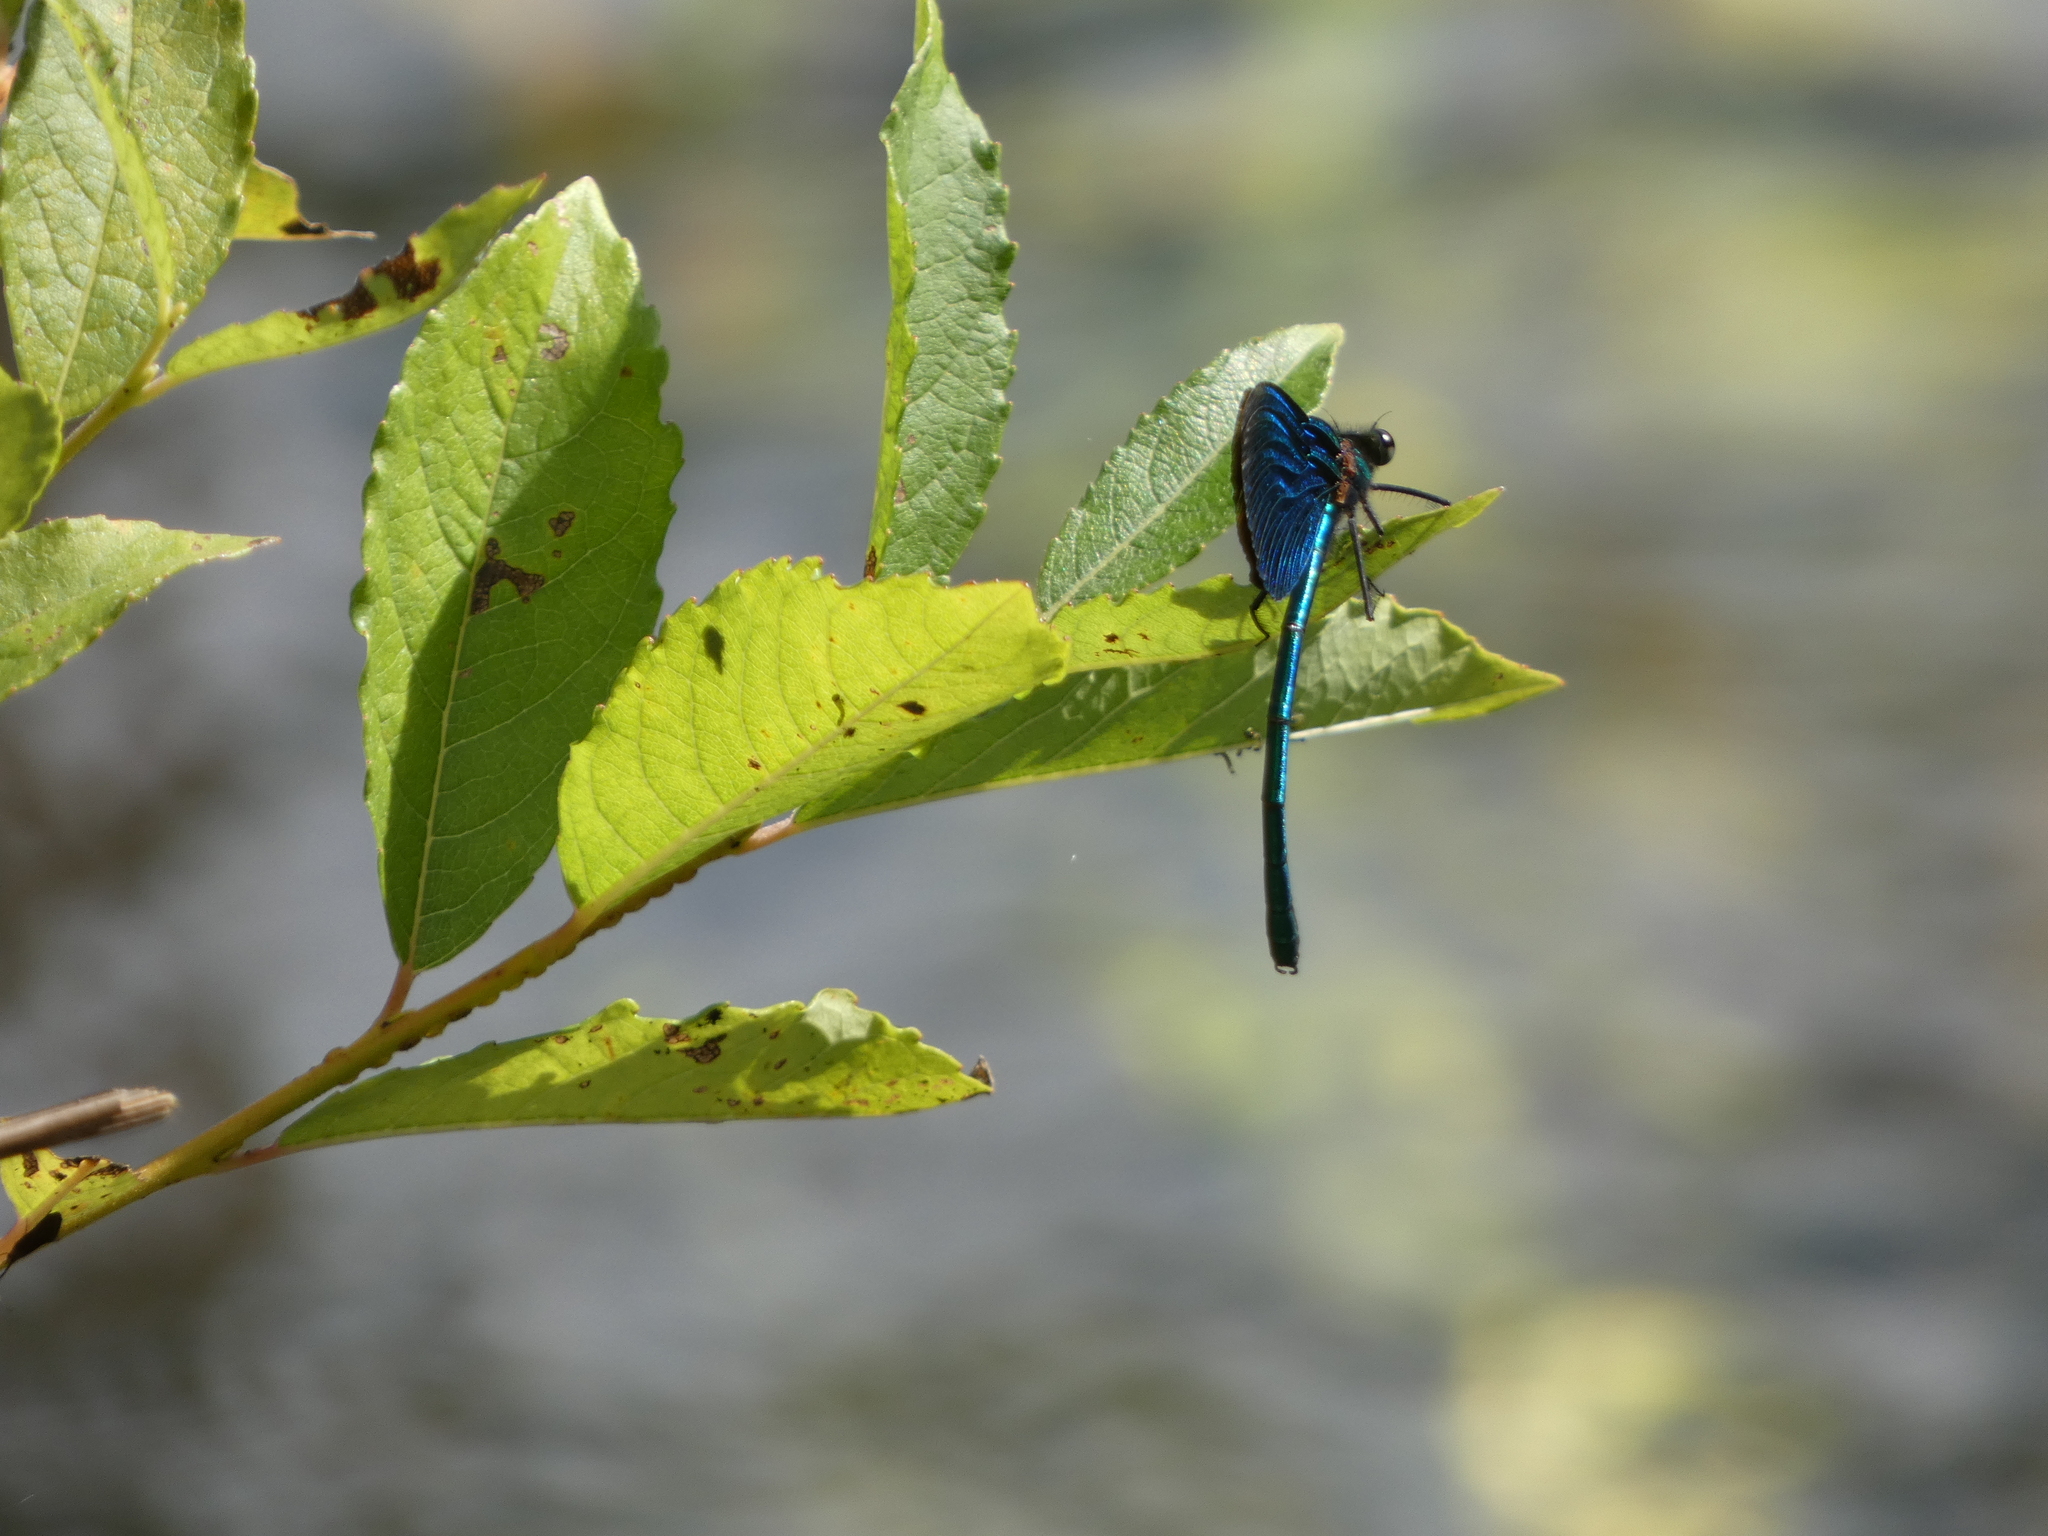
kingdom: Animalia
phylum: Arthropoda
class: Insecta
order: Odonata
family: Calopterygidae
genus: Calopteryx
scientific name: Calopteryx virgo
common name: Beautiful demoiselle
